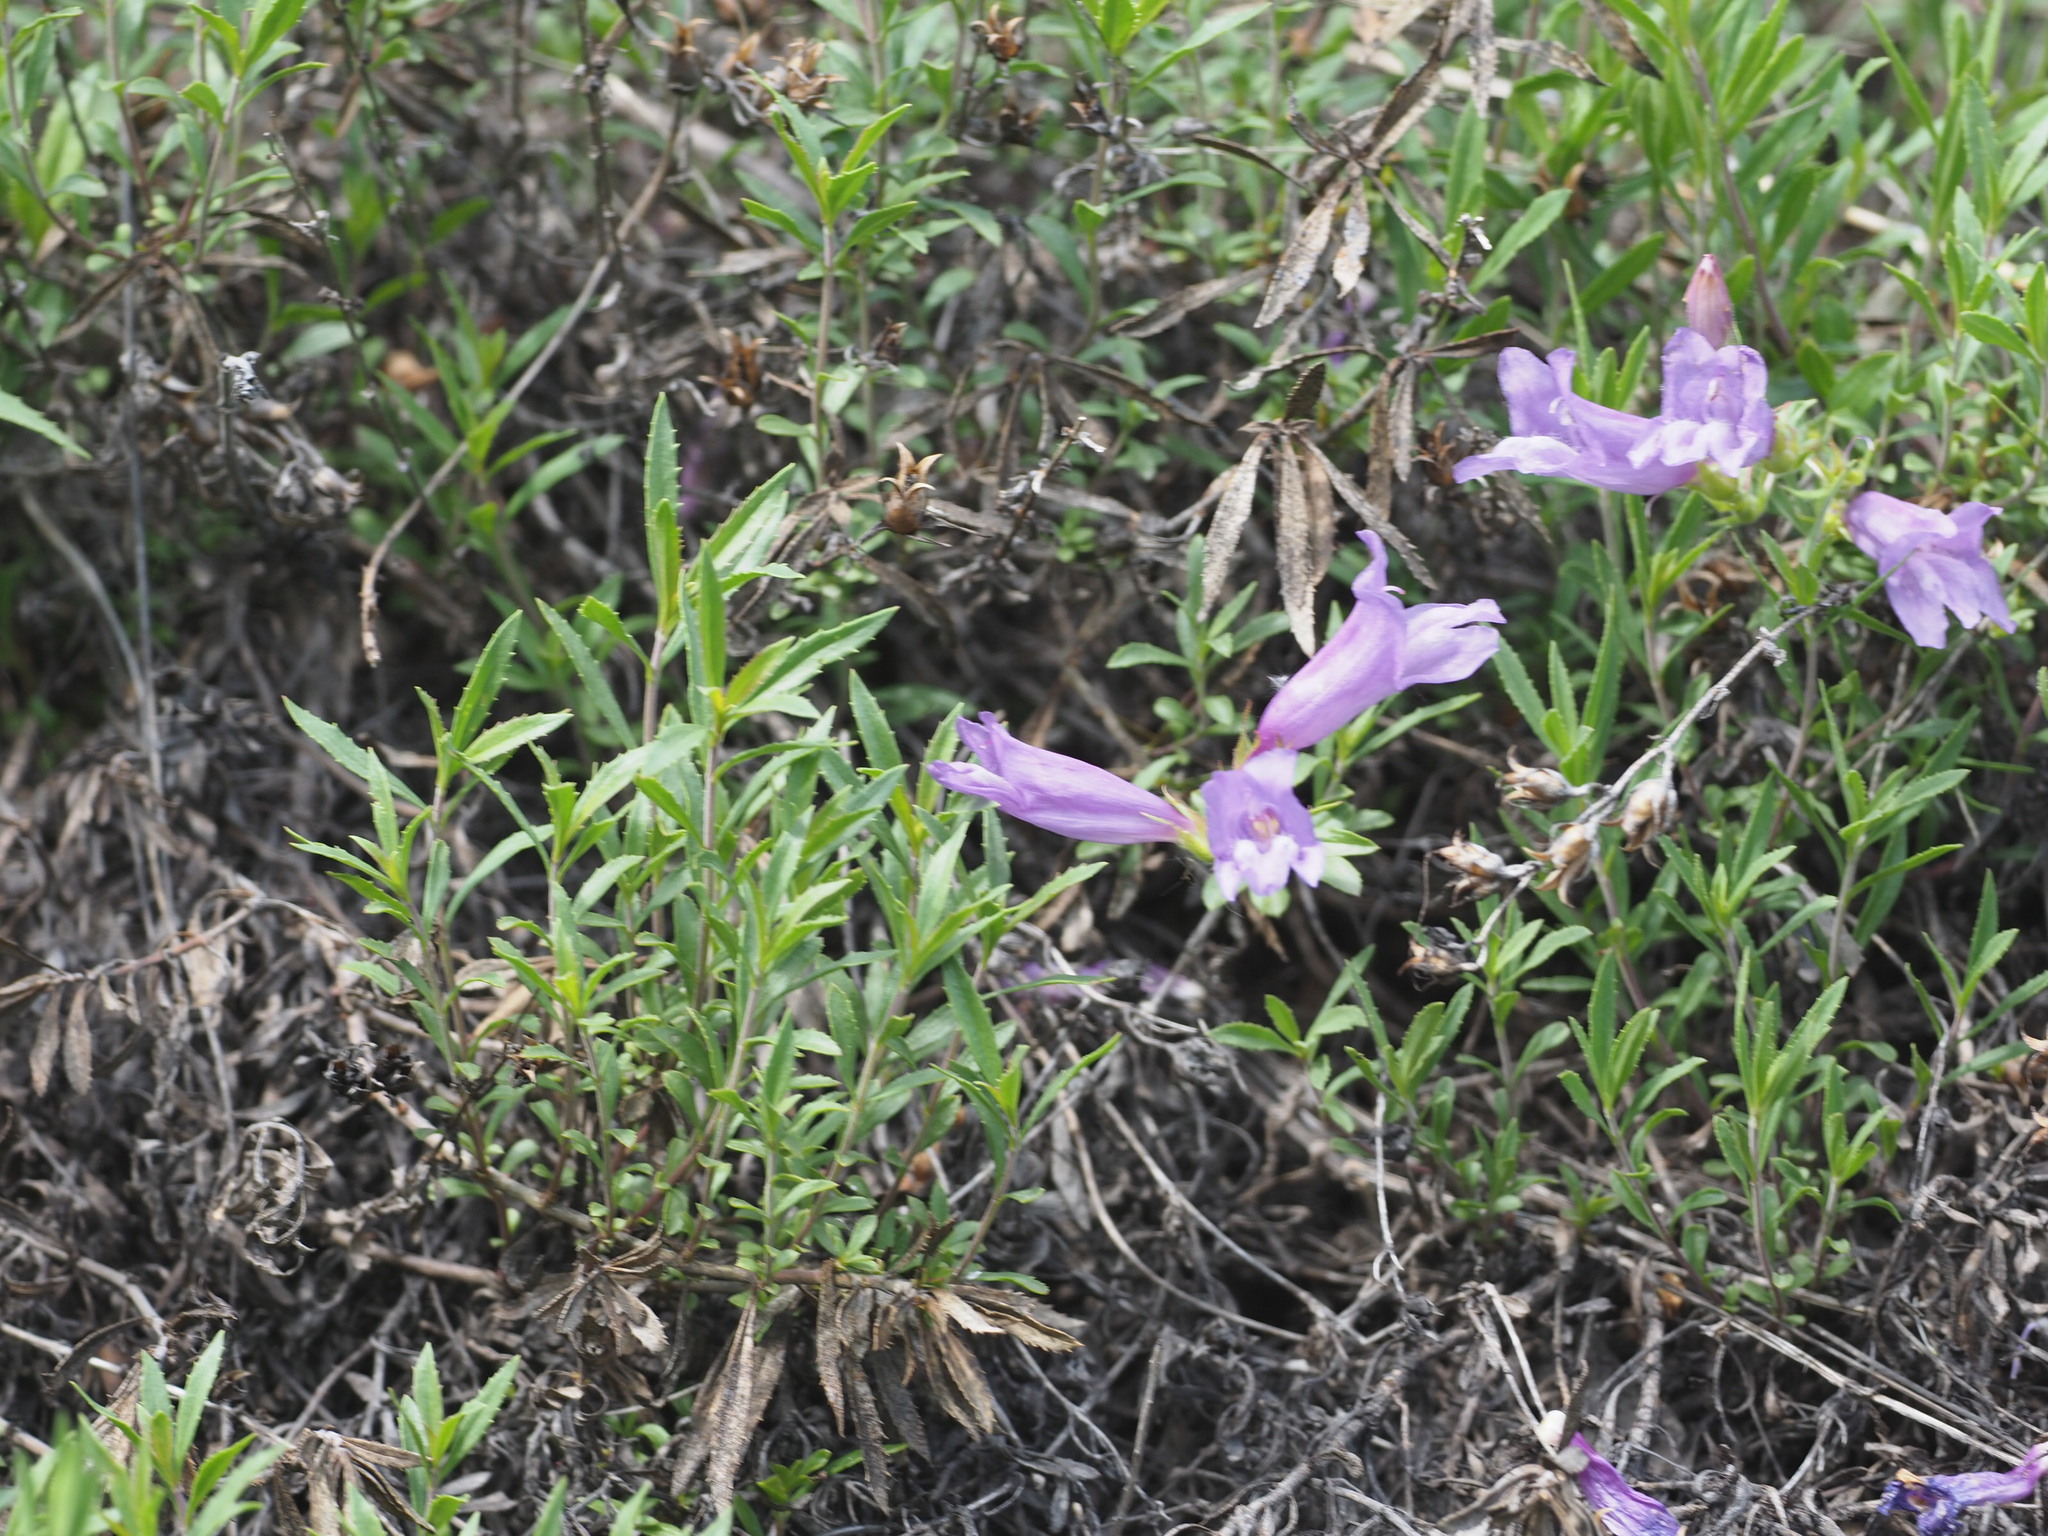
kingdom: Plantae
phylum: Tracheophyta
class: Magnoliopsida
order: Lamiales
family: Plantaginaceae
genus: Penstemon
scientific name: Penstemon fruticosus
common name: Bush penstemon
